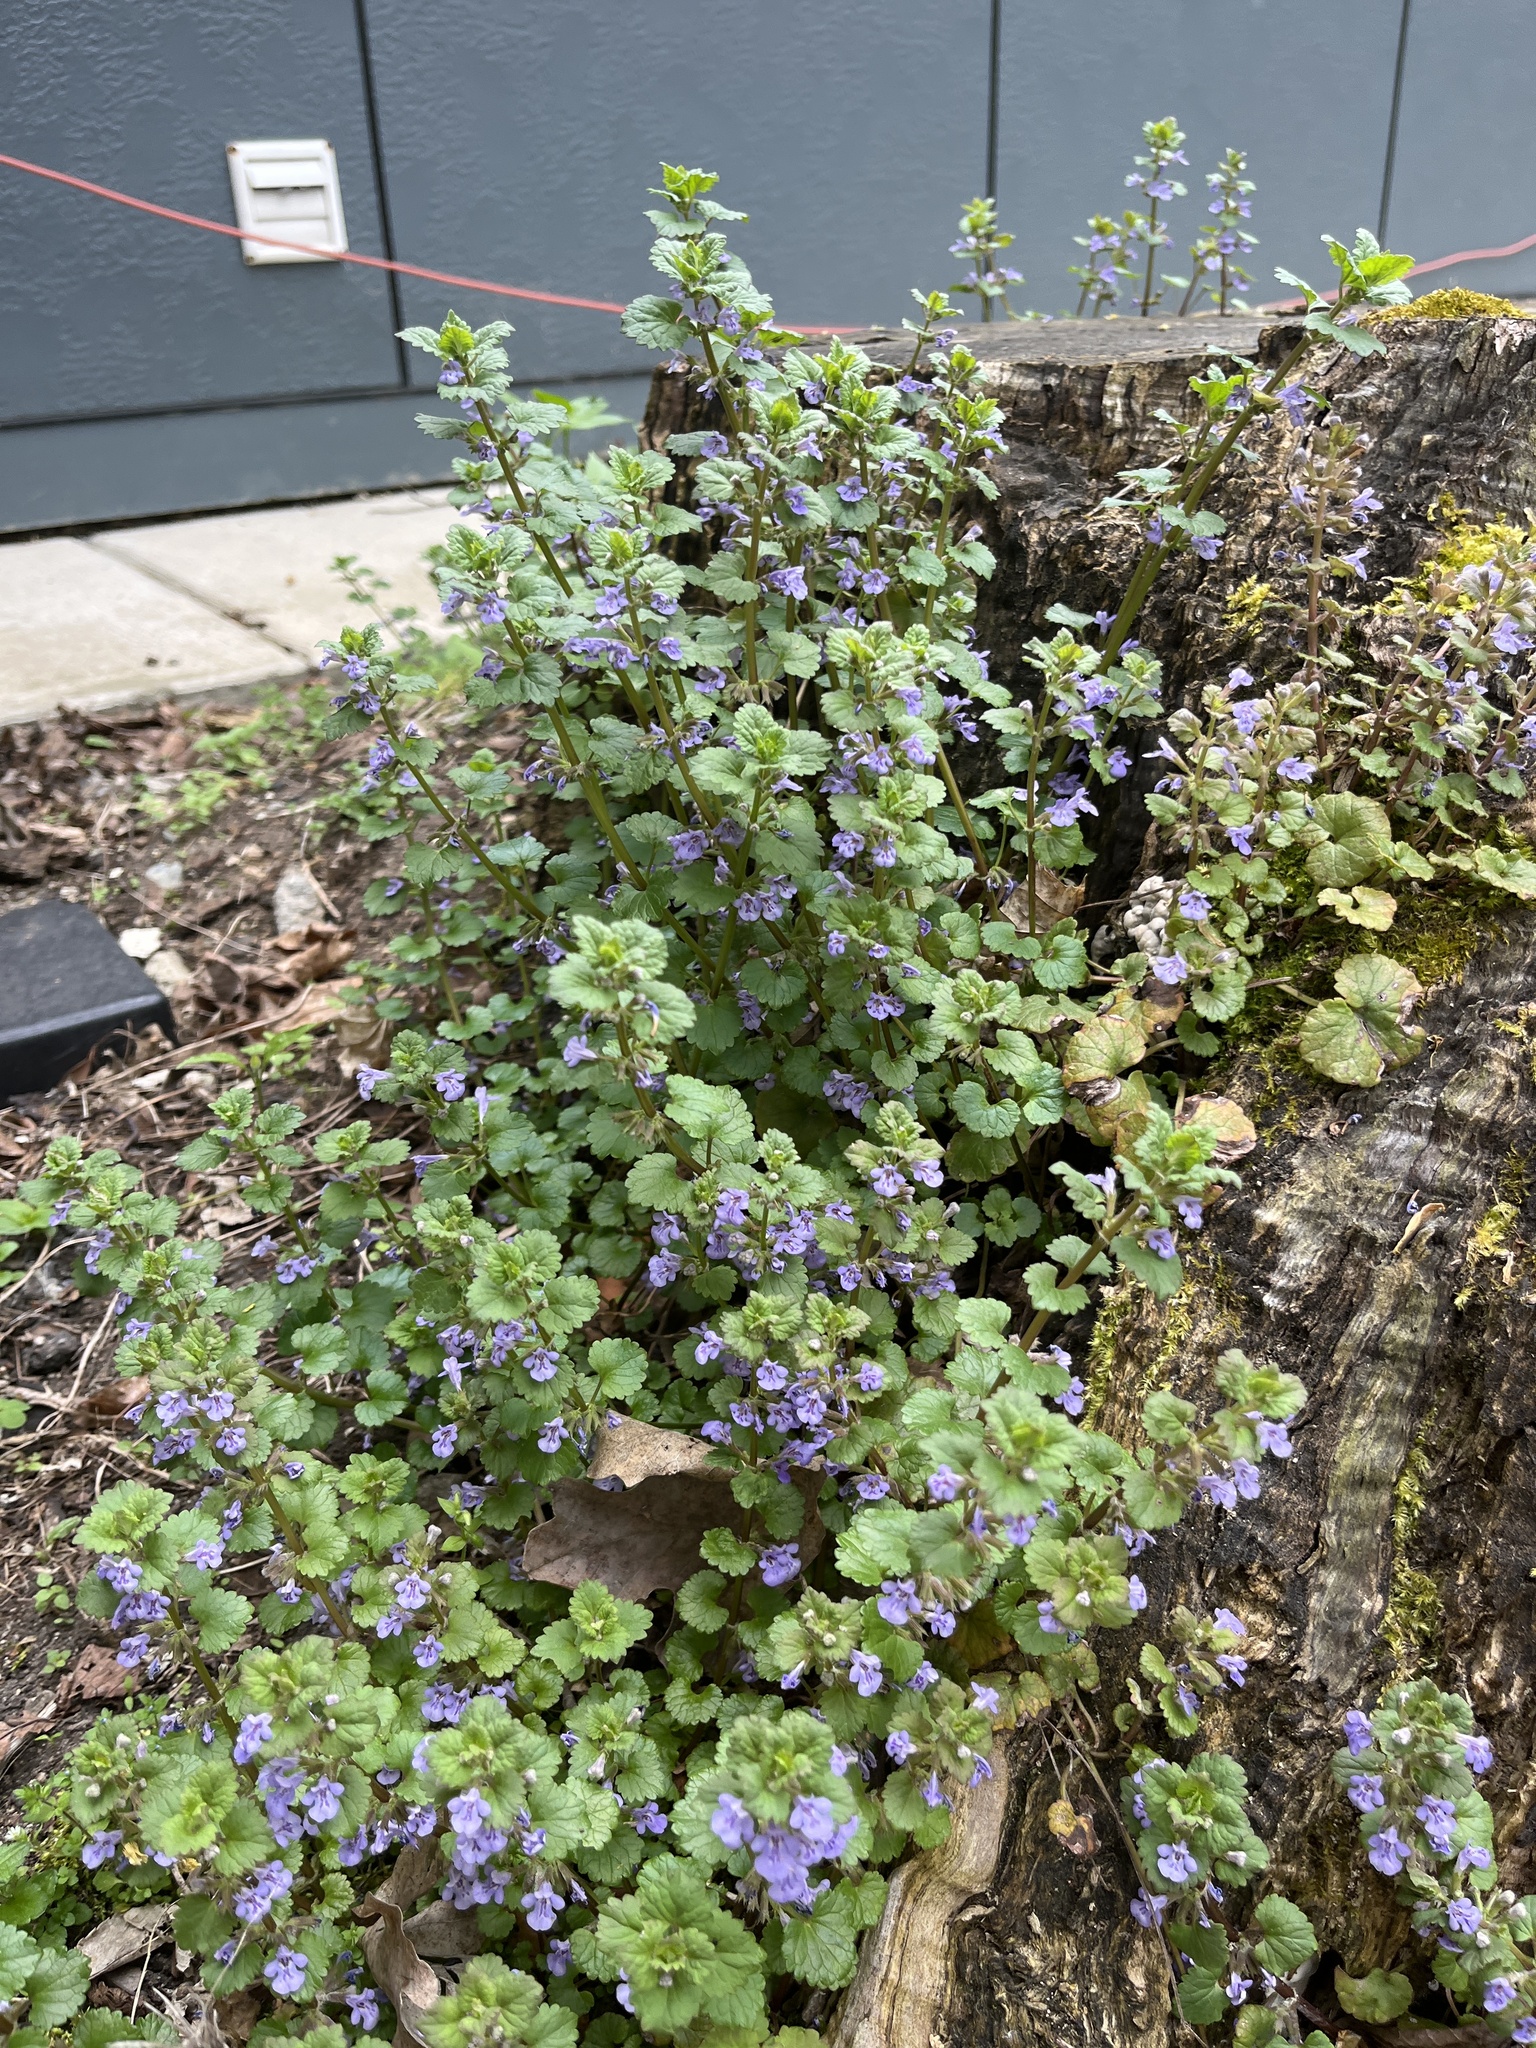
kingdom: Plantae
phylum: Tracheophyta
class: Magnoliopsida
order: Lamiales
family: Lamiaceae
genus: Glechoma
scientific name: Glechoma hederacea
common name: Ground ivy
